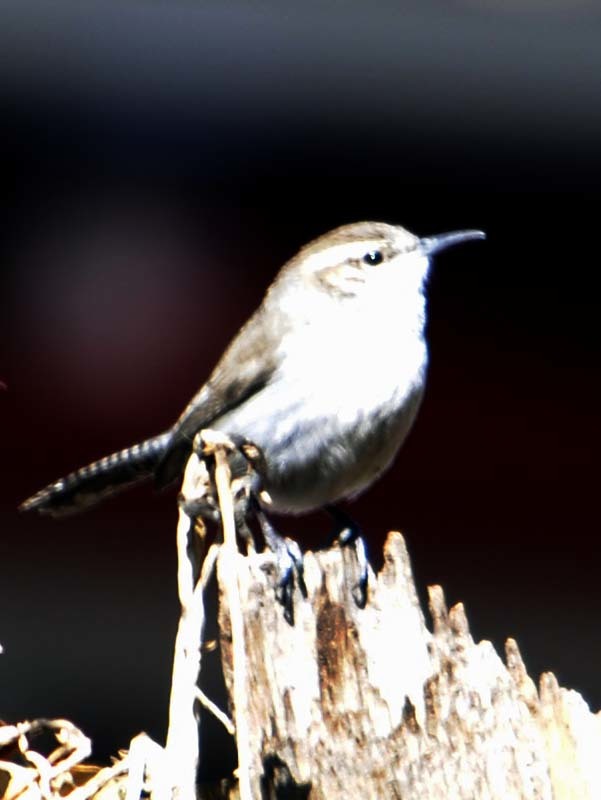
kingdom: Animalia
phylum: Chordata
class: Aves
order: Passeriformes
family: Troglodytidae
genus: Thryomanes
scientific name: Thryomanes bewickii
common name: Bewick's wren
